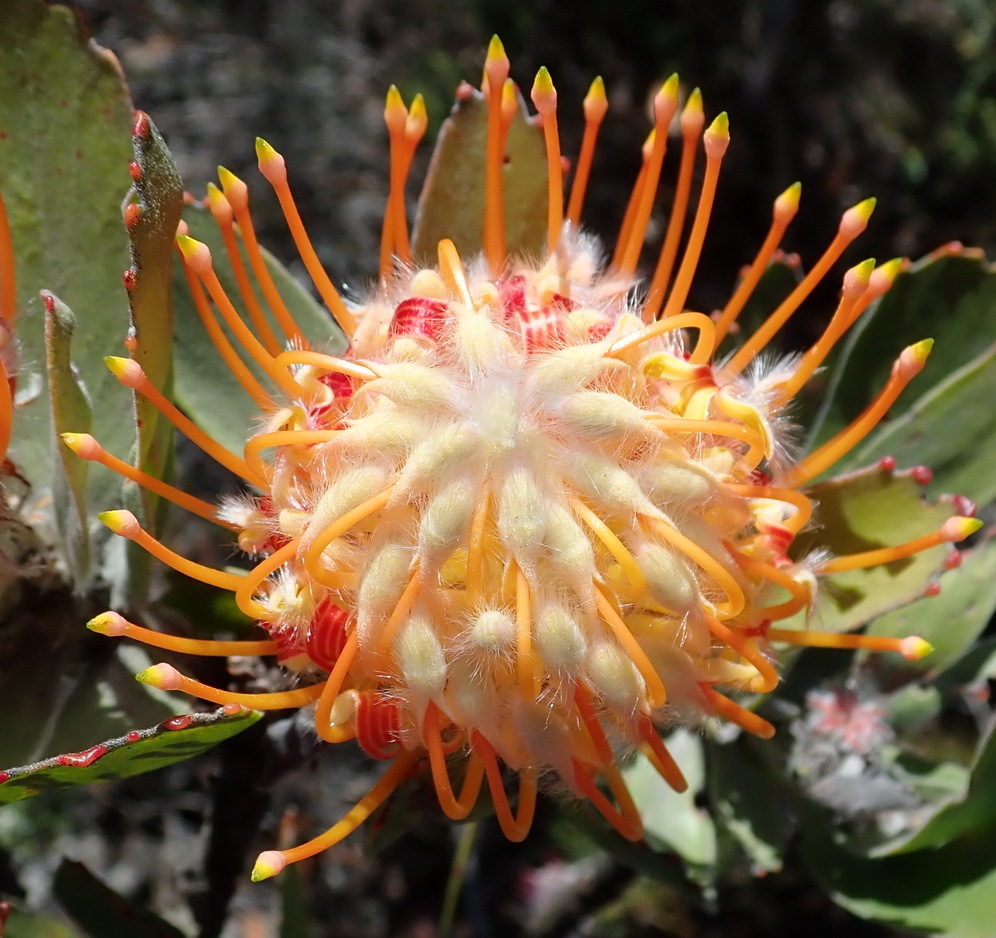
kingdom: Plantae
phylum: Tracheophyta
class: Magnoliopsida
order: Proteales
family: Proteaceae
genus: Leucospermum
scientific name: Leucospermum pluridens
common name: Robinson pincushion
